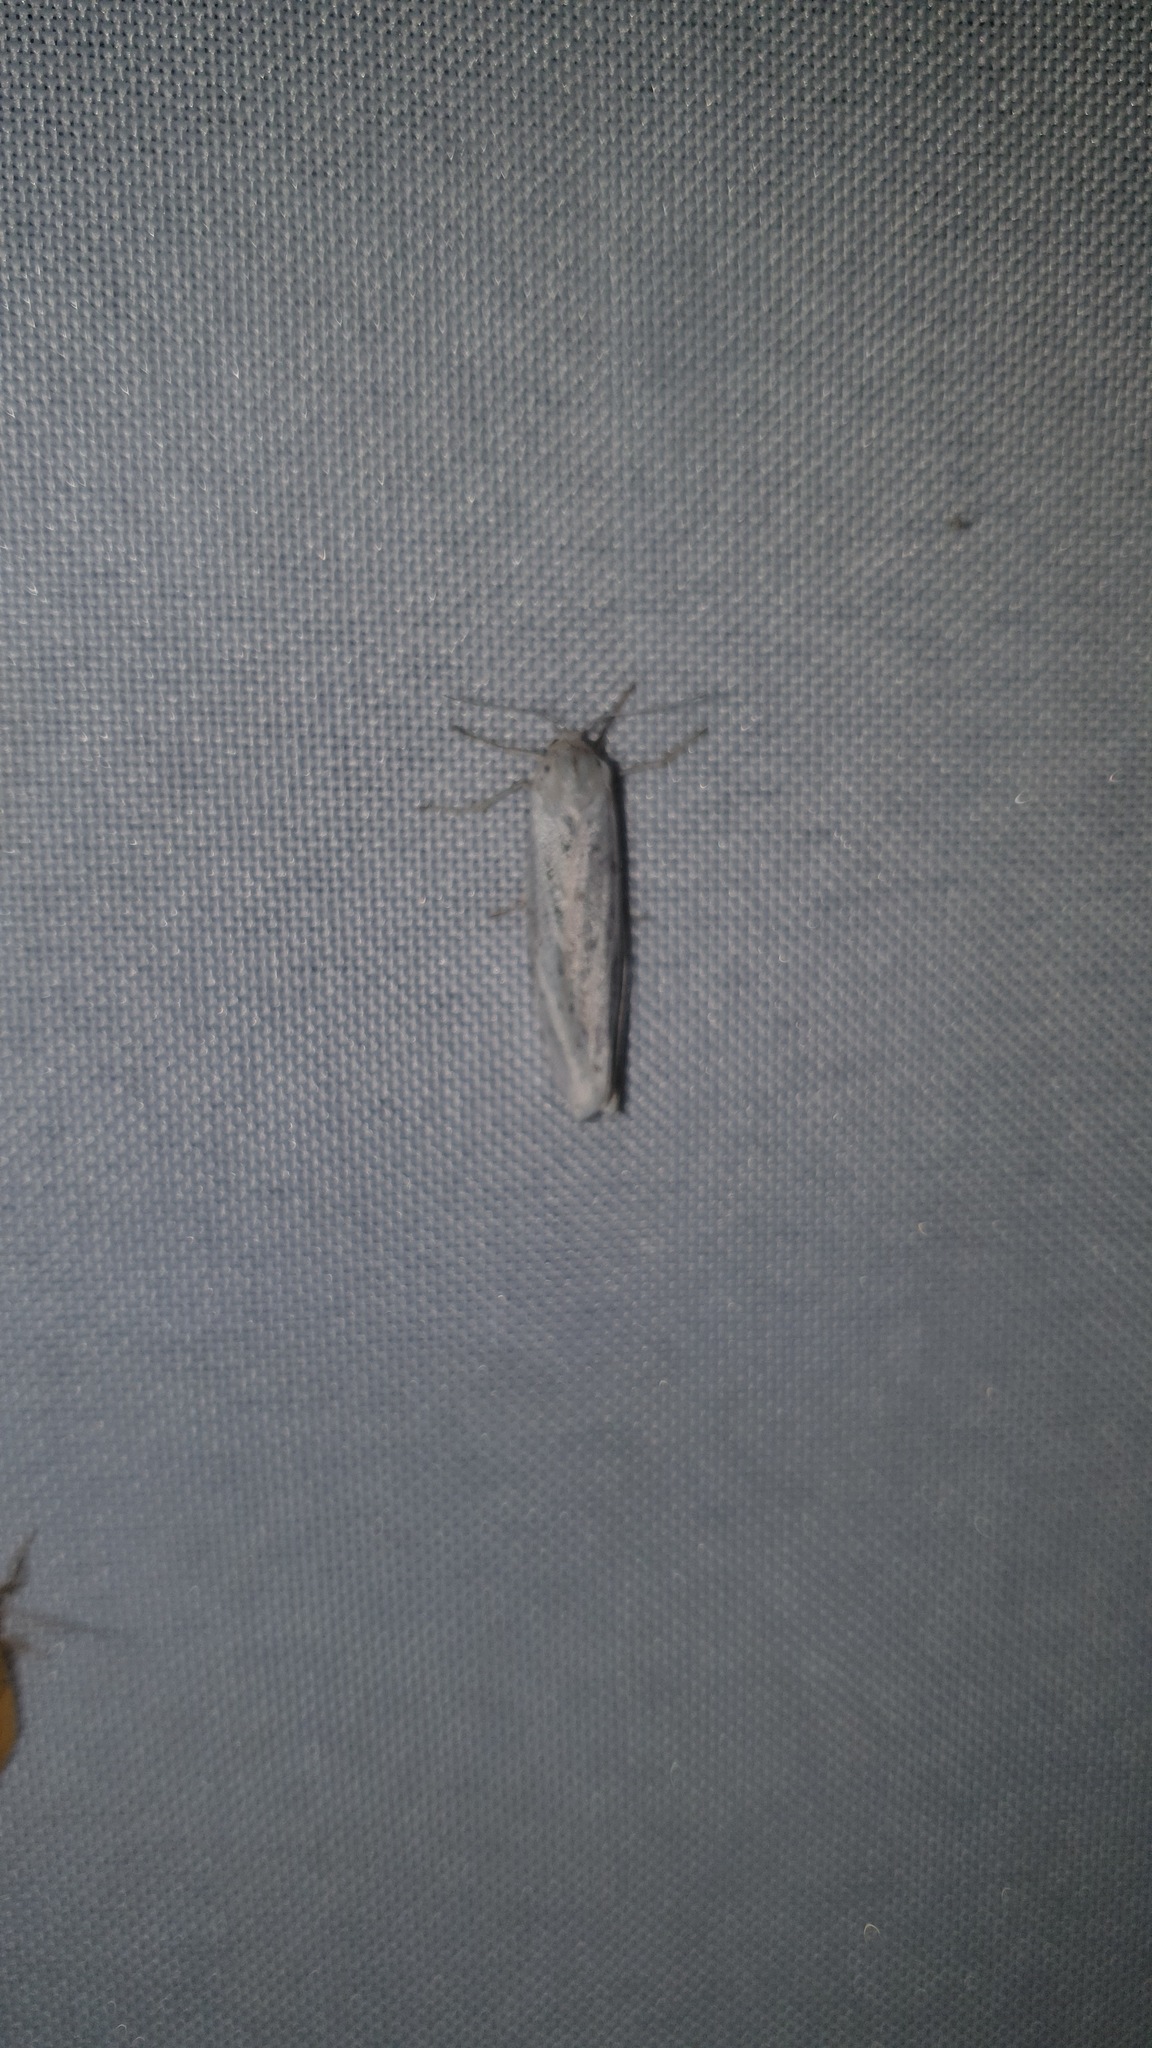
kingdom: Animalia
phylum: Arthropoda
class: Insecta
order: Lepidoptera
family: Erebidae
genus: Coscinia
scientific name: Coscinia cribraria
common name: Speckled footman
